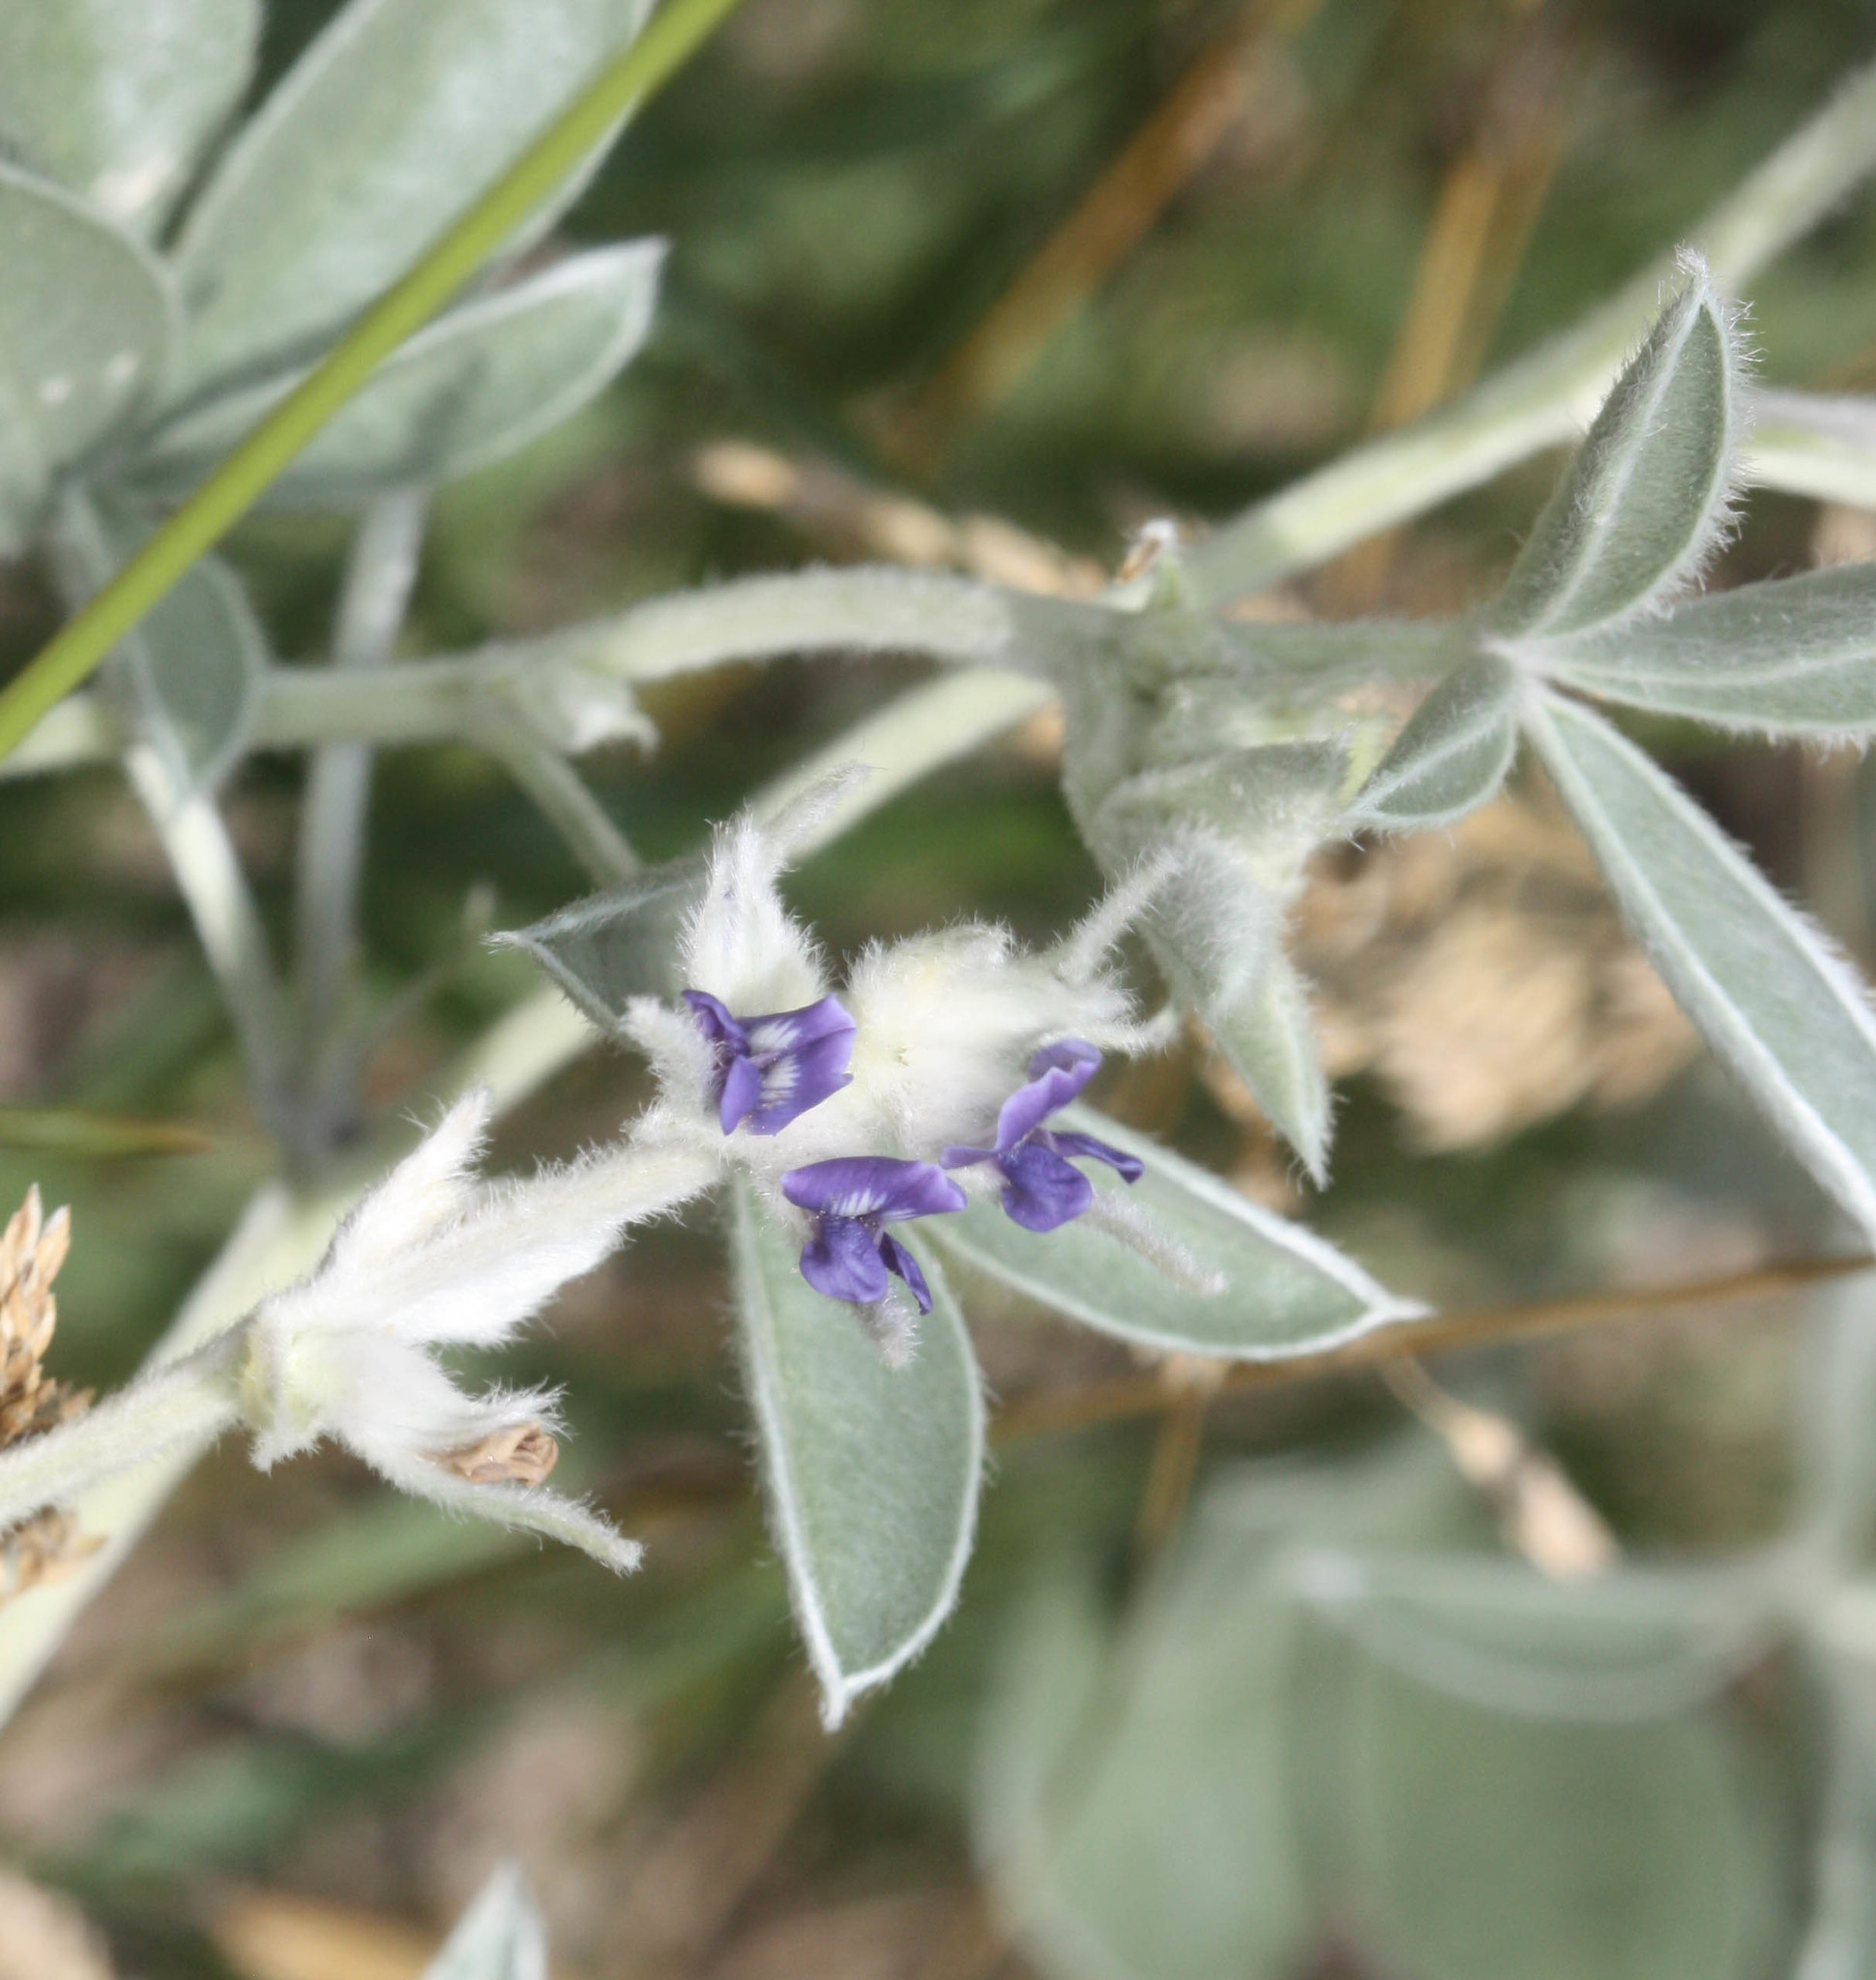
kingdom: Plantae
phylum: Tracheophyta
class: Magnoliopsida
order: Fabales
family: Fabaceae
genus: Pediomelum
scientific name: Pediomelum argophyllum
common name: Silver-leaved indian breadroot
